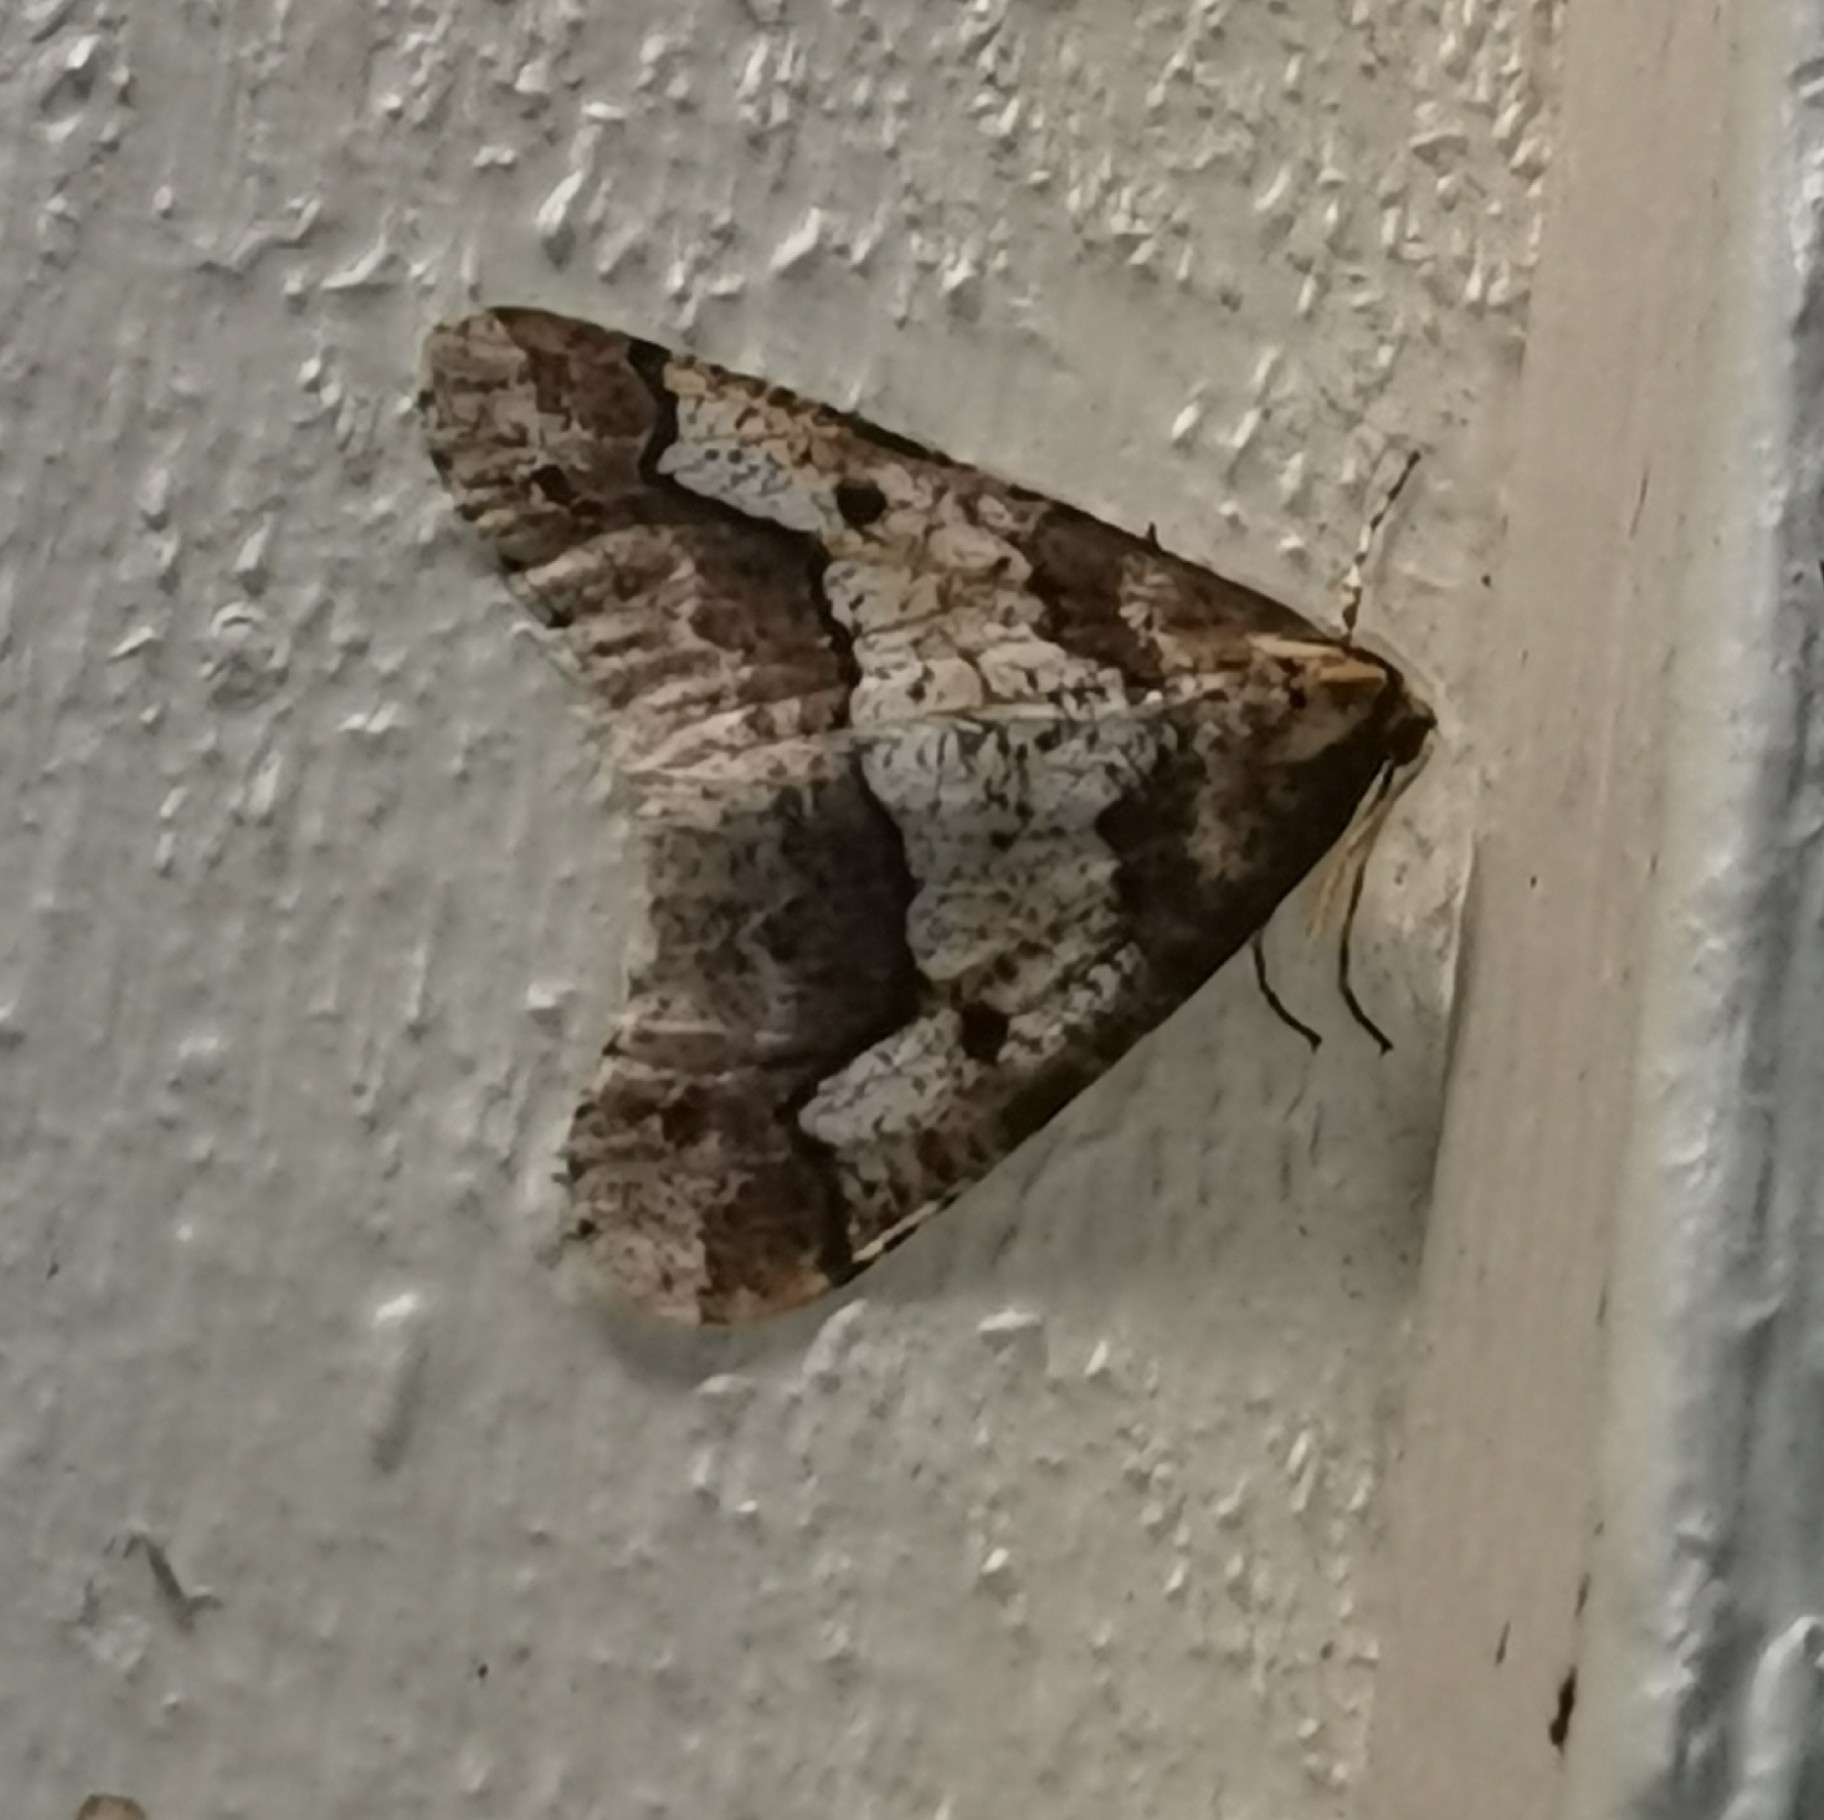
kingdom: Animalia
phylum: Arthropoda
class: Insecta
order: Lepidoptera
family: Geometridae
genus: Erannis
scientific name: Erannis defoliaria
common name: Mottled umber
